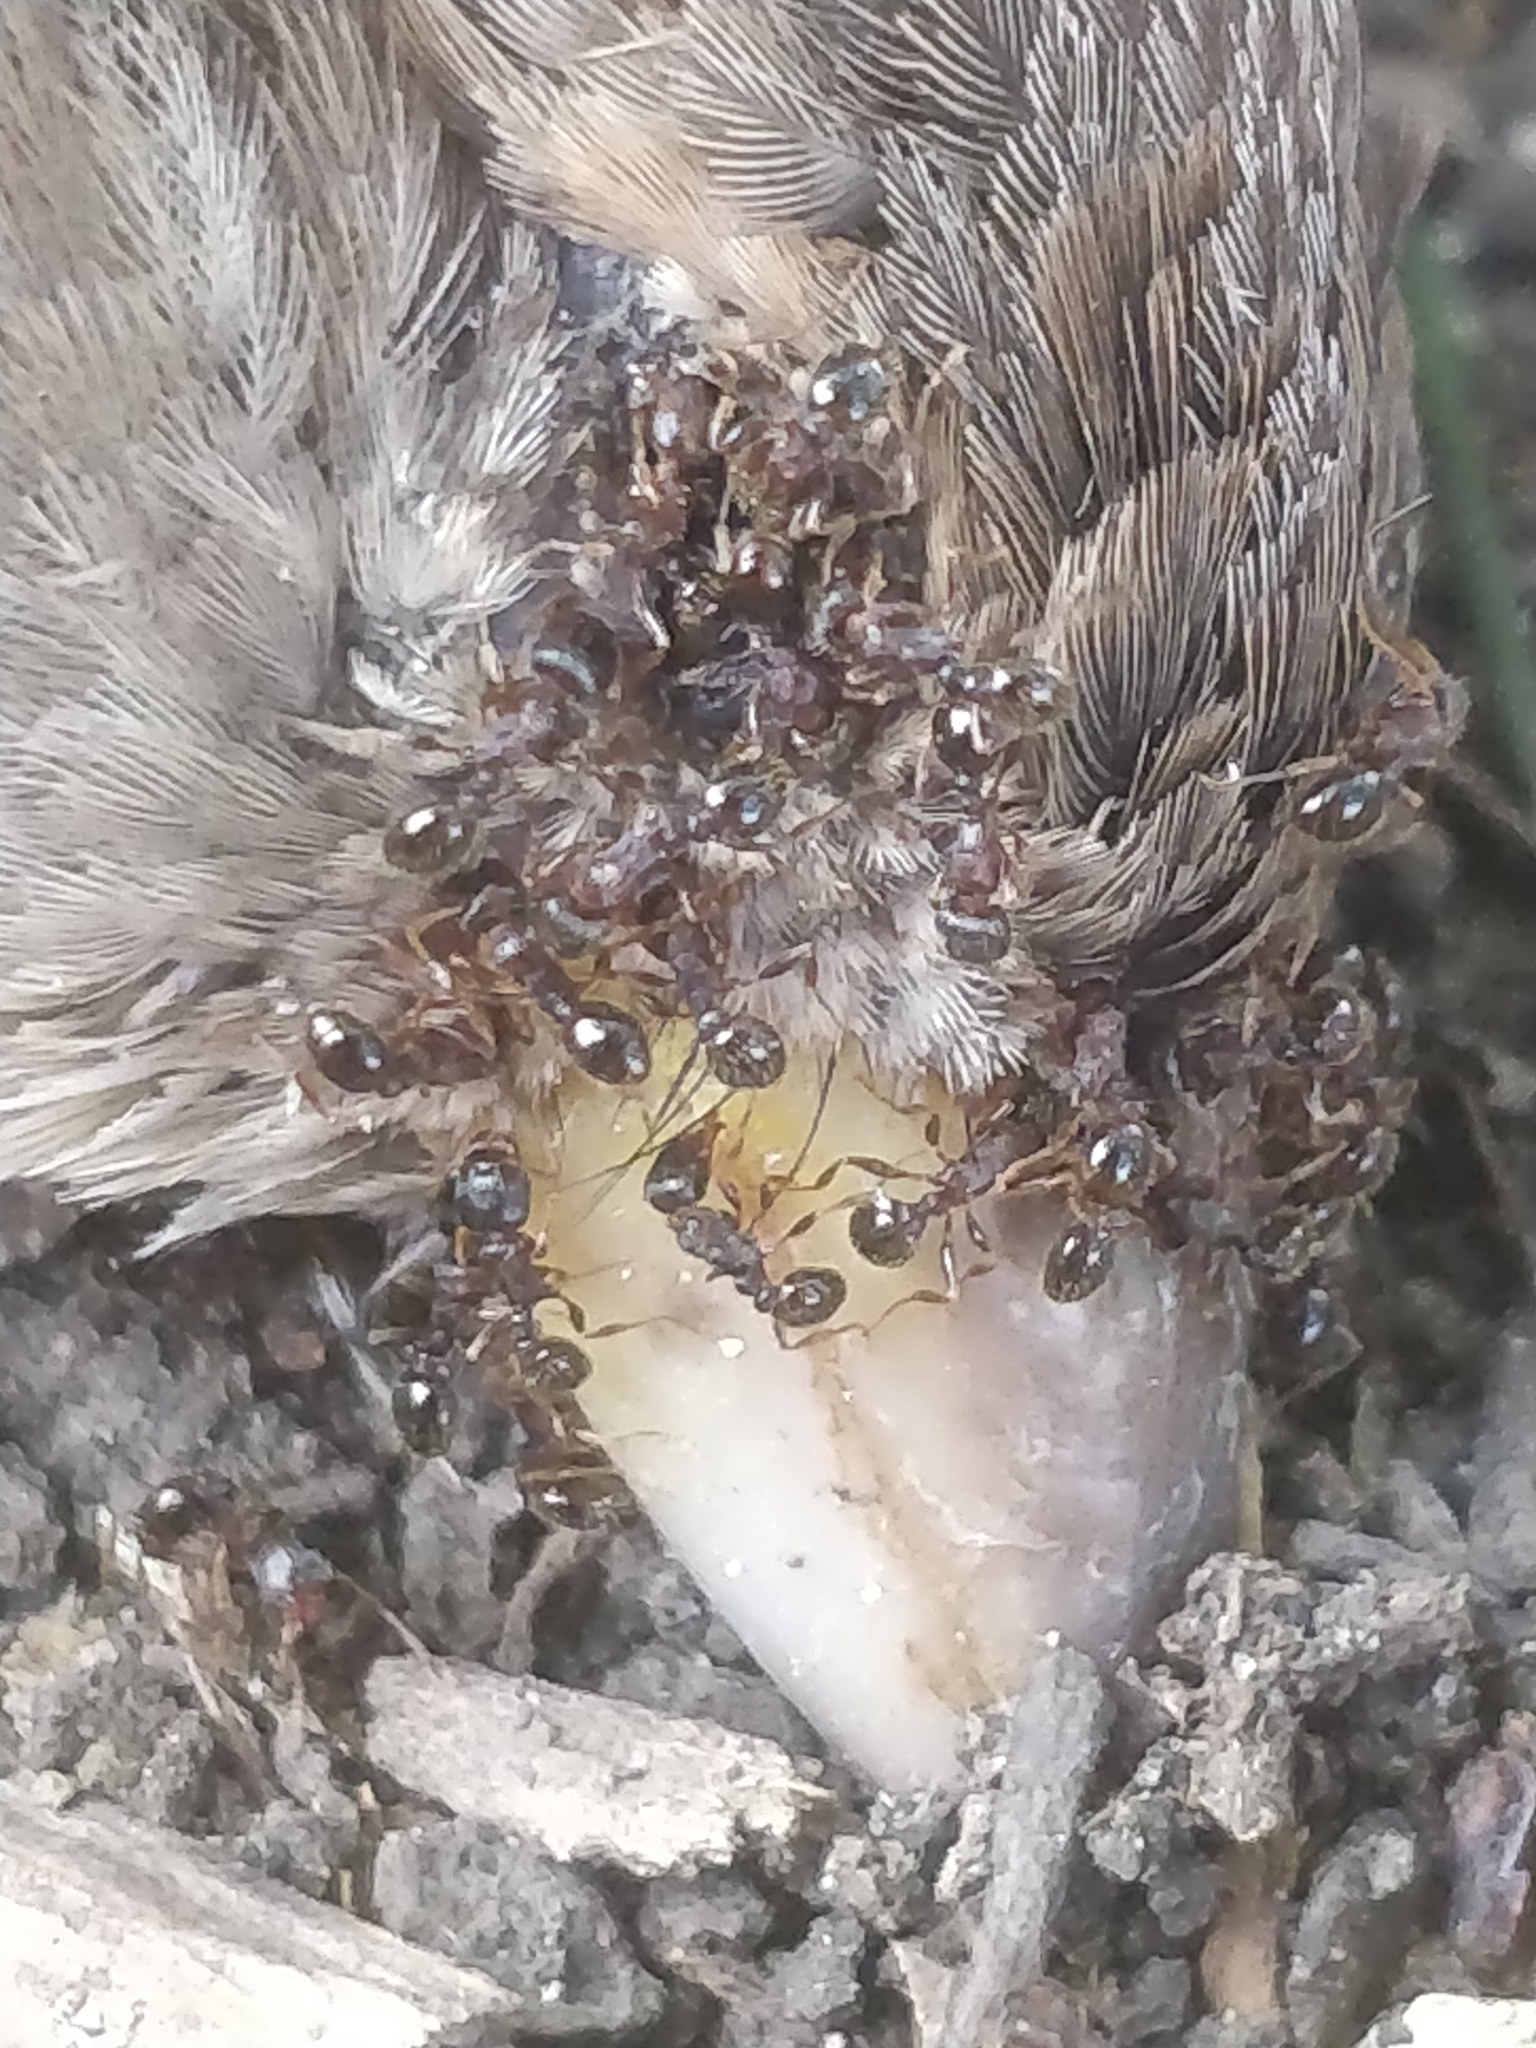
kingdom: Animalia
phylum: Arthropoda
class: Insecta
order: Hymenoptera
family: Formicidae
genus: Tetramorium
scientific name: Tetramorium immigrans
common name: Pavement ant
